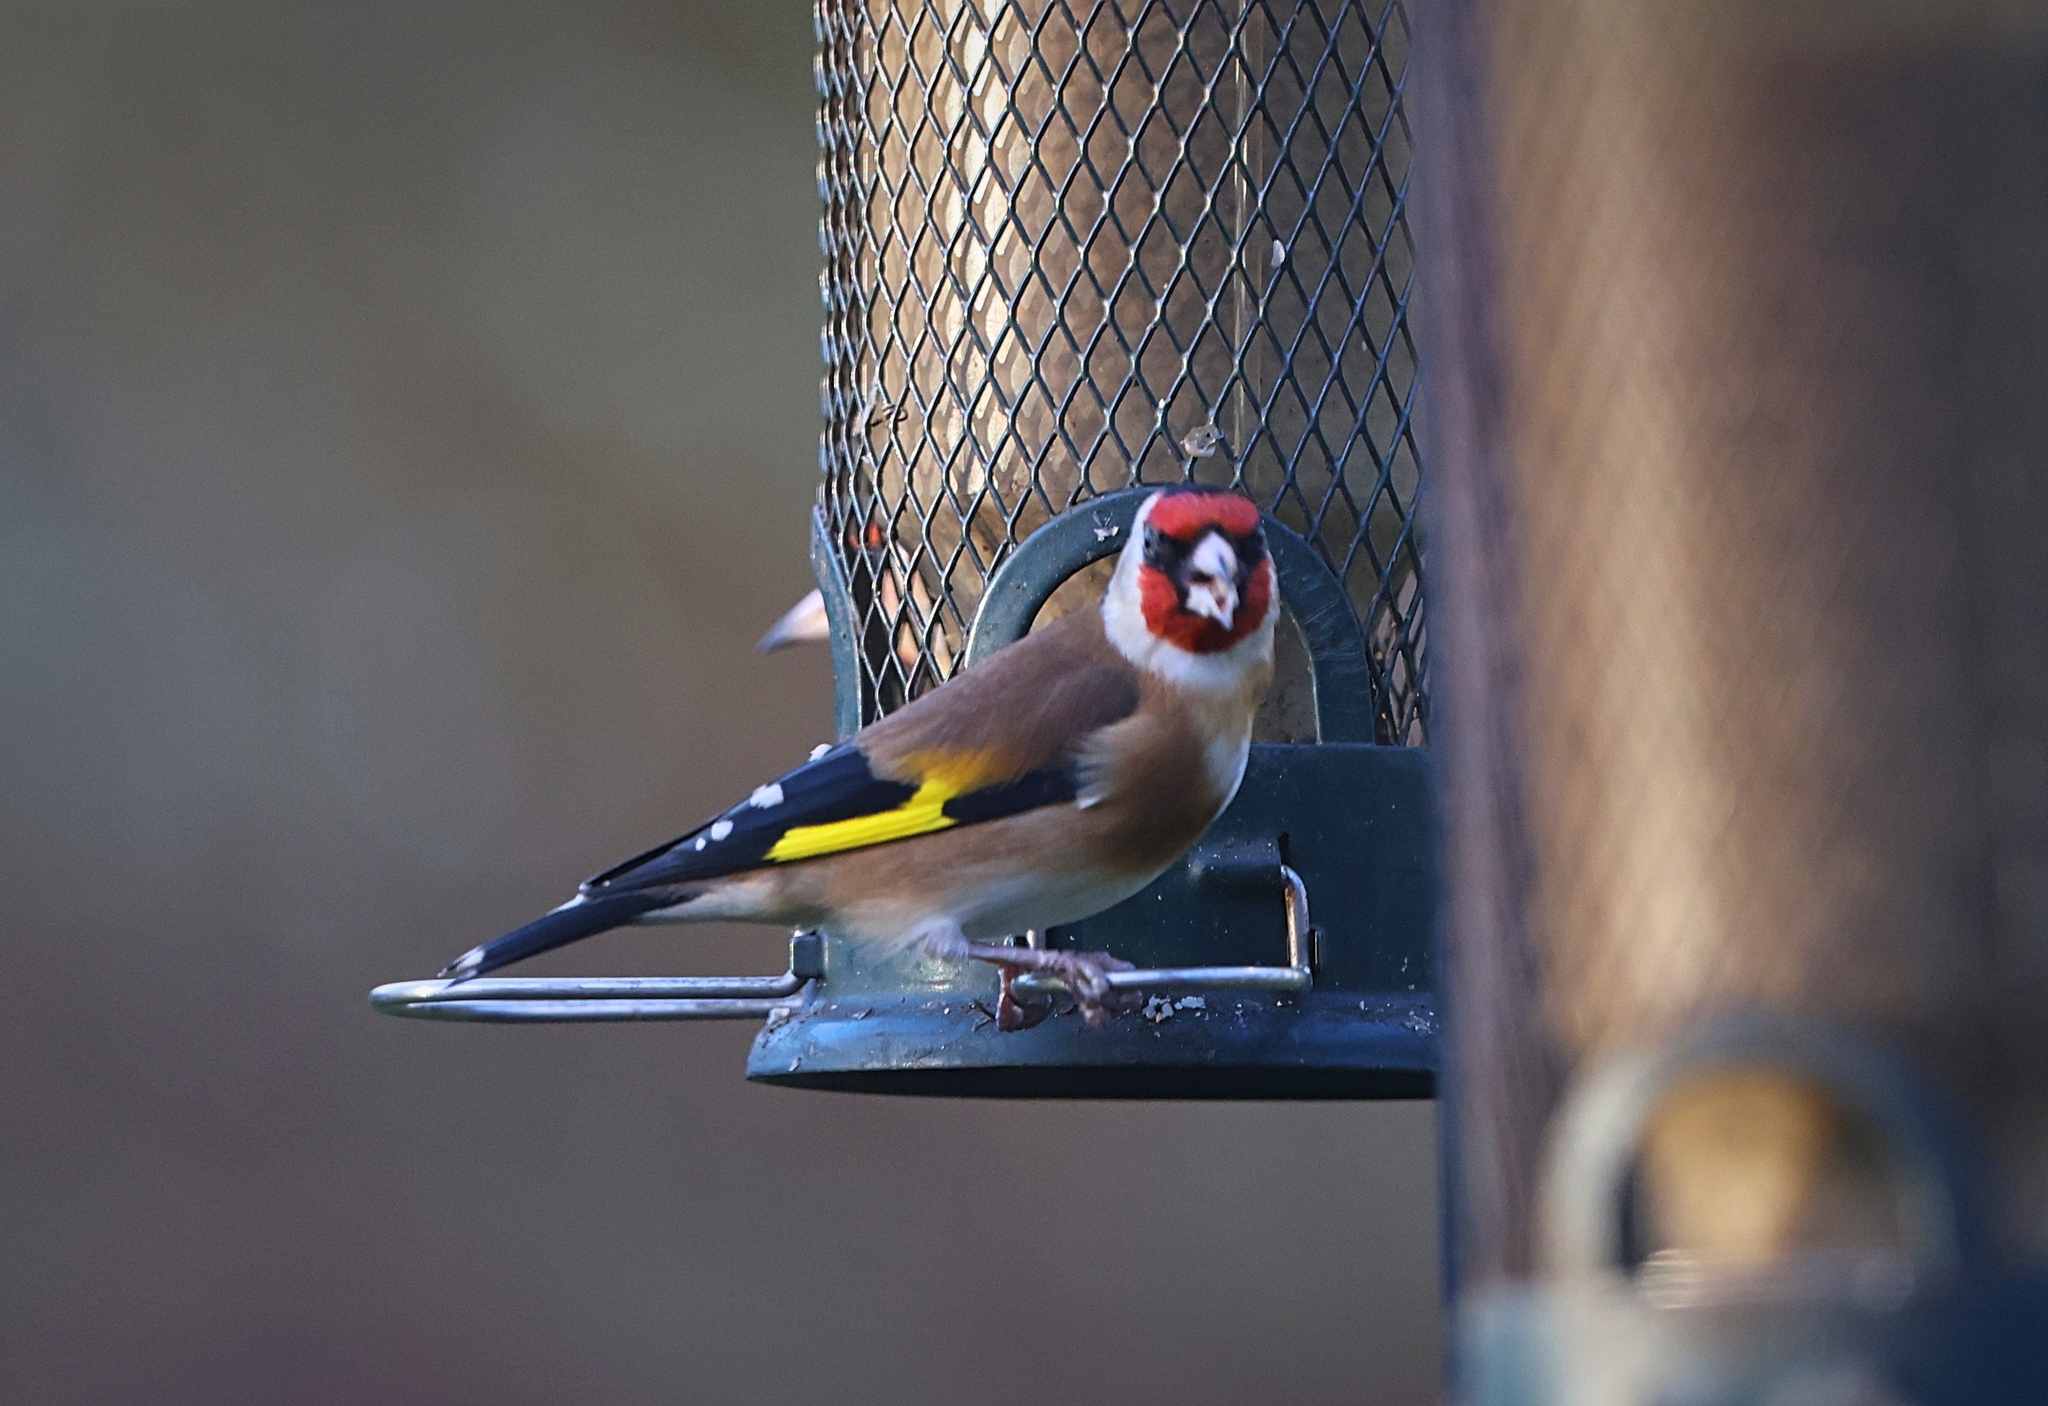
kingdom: Animalia
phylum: Chordata
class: Aves
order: Passeriformes
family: Fringillidae
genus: Carduelis
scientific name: Carduelis carduelis
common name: European goldfinch
